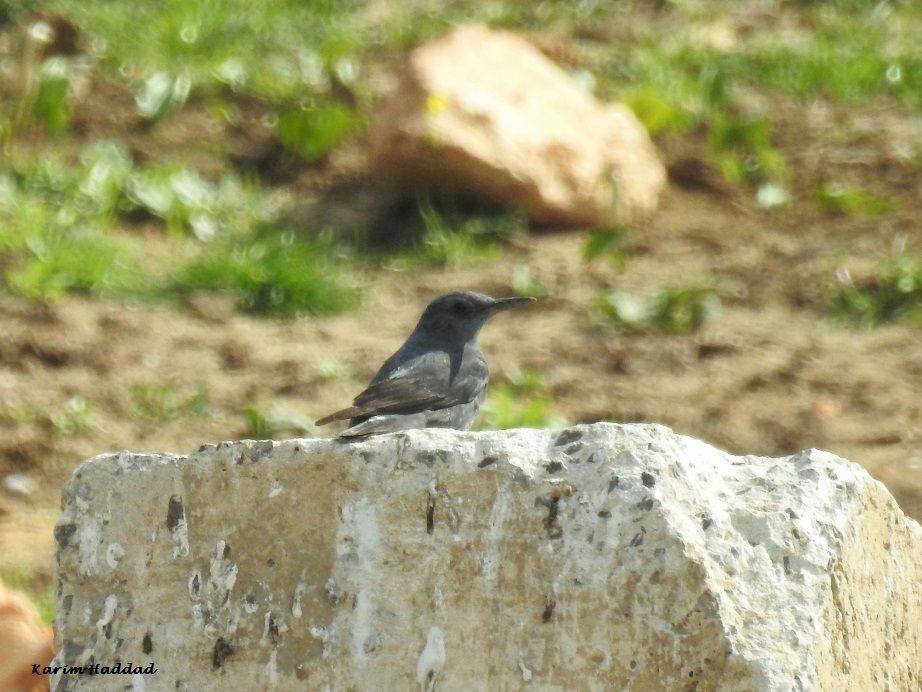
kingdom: Animalia
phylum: Chordata
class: Aves
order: Passeriformes
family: Muscicapidae
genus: Monticola
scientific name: Monticola solitarius
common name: Blue rock thrush
